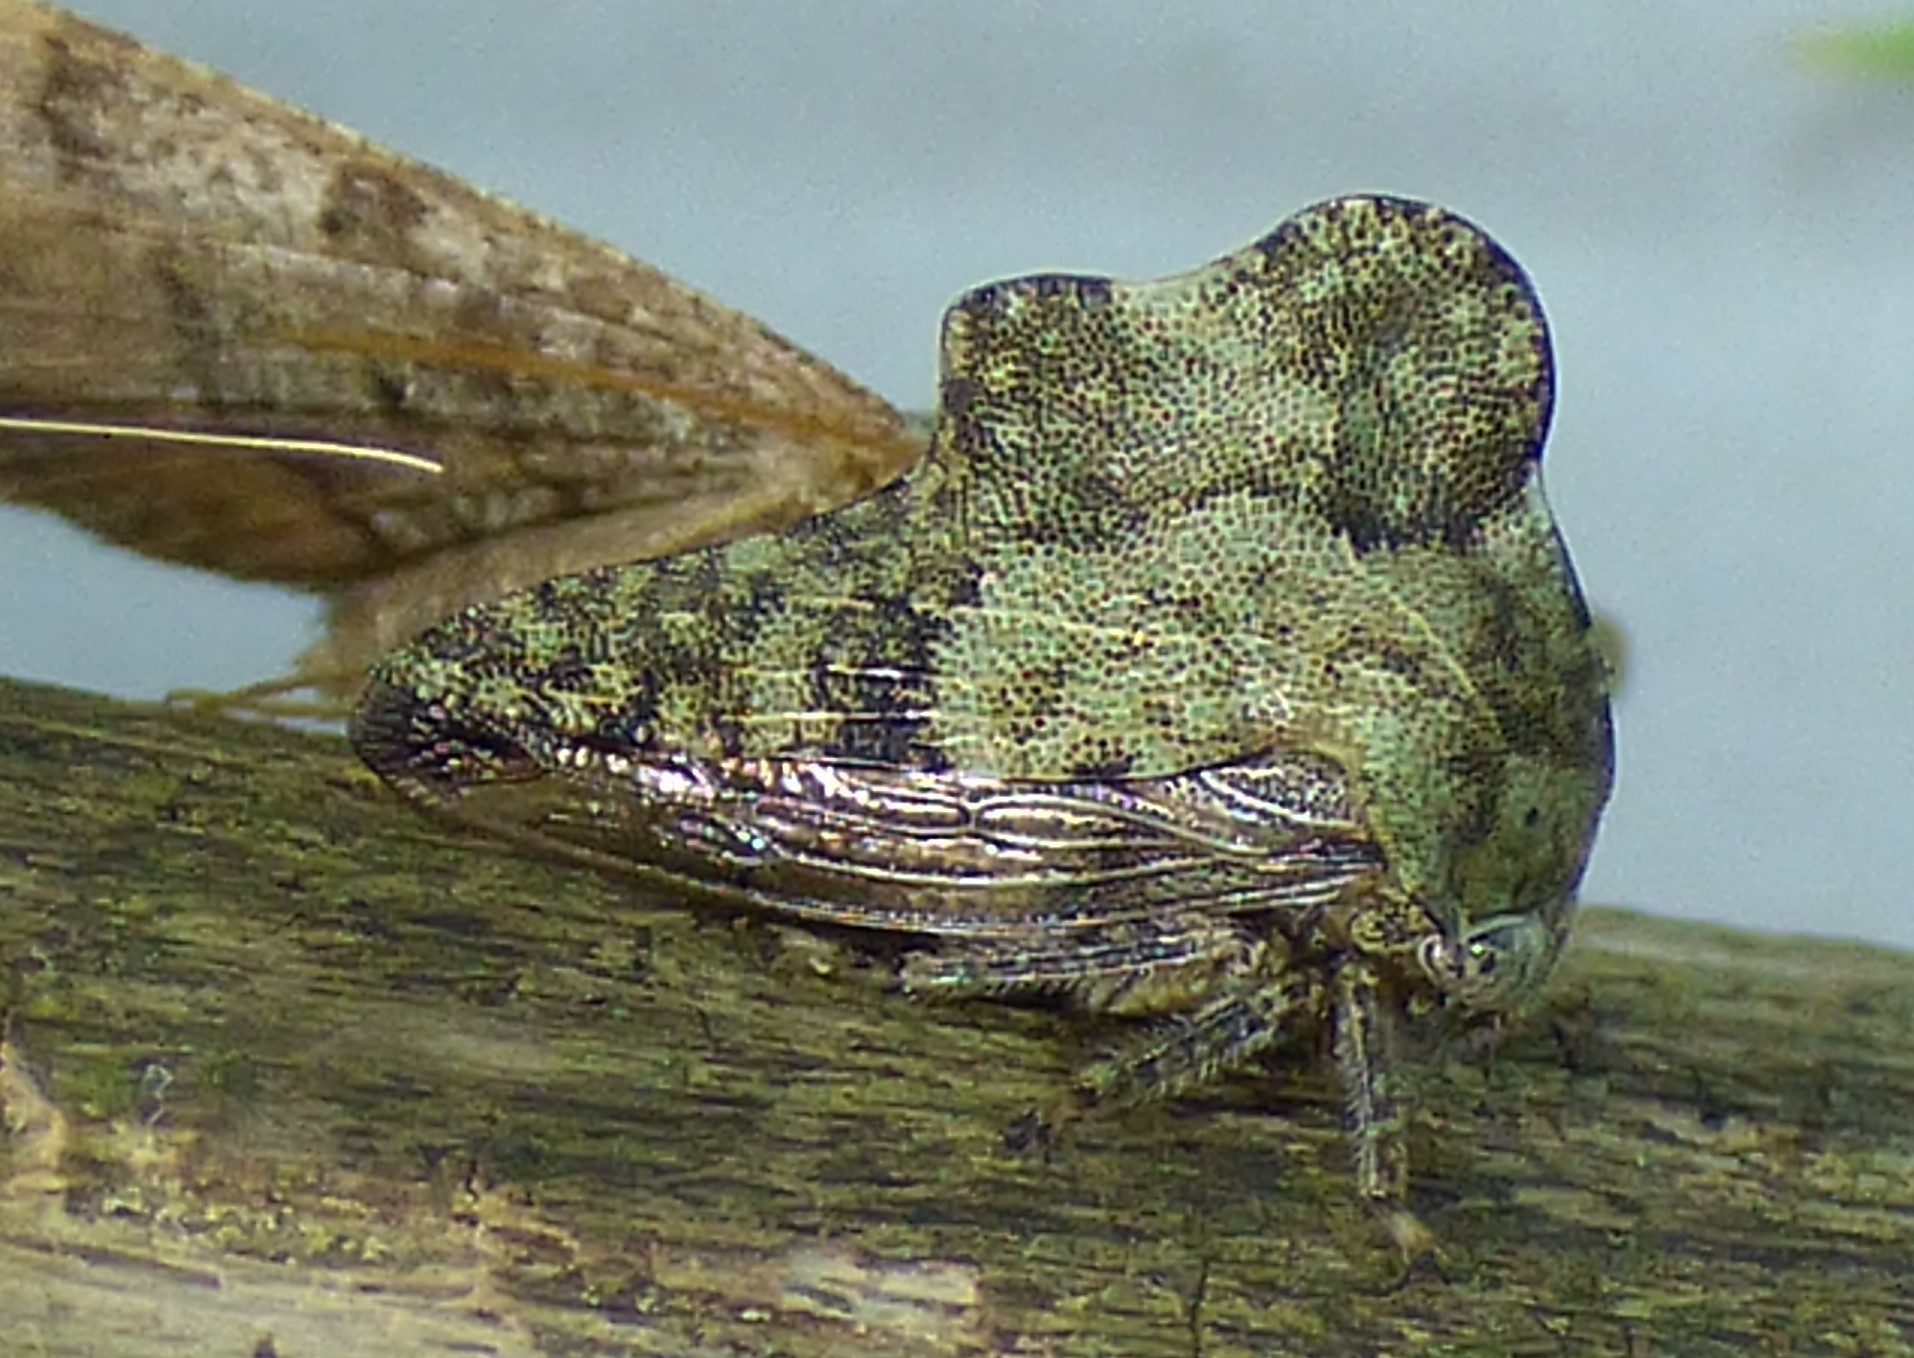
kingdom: Animalia
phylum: Arthropoda
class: Insecta
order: Hemiptera
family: Membracidae
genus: Heliria
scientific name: Heliria cornutula
